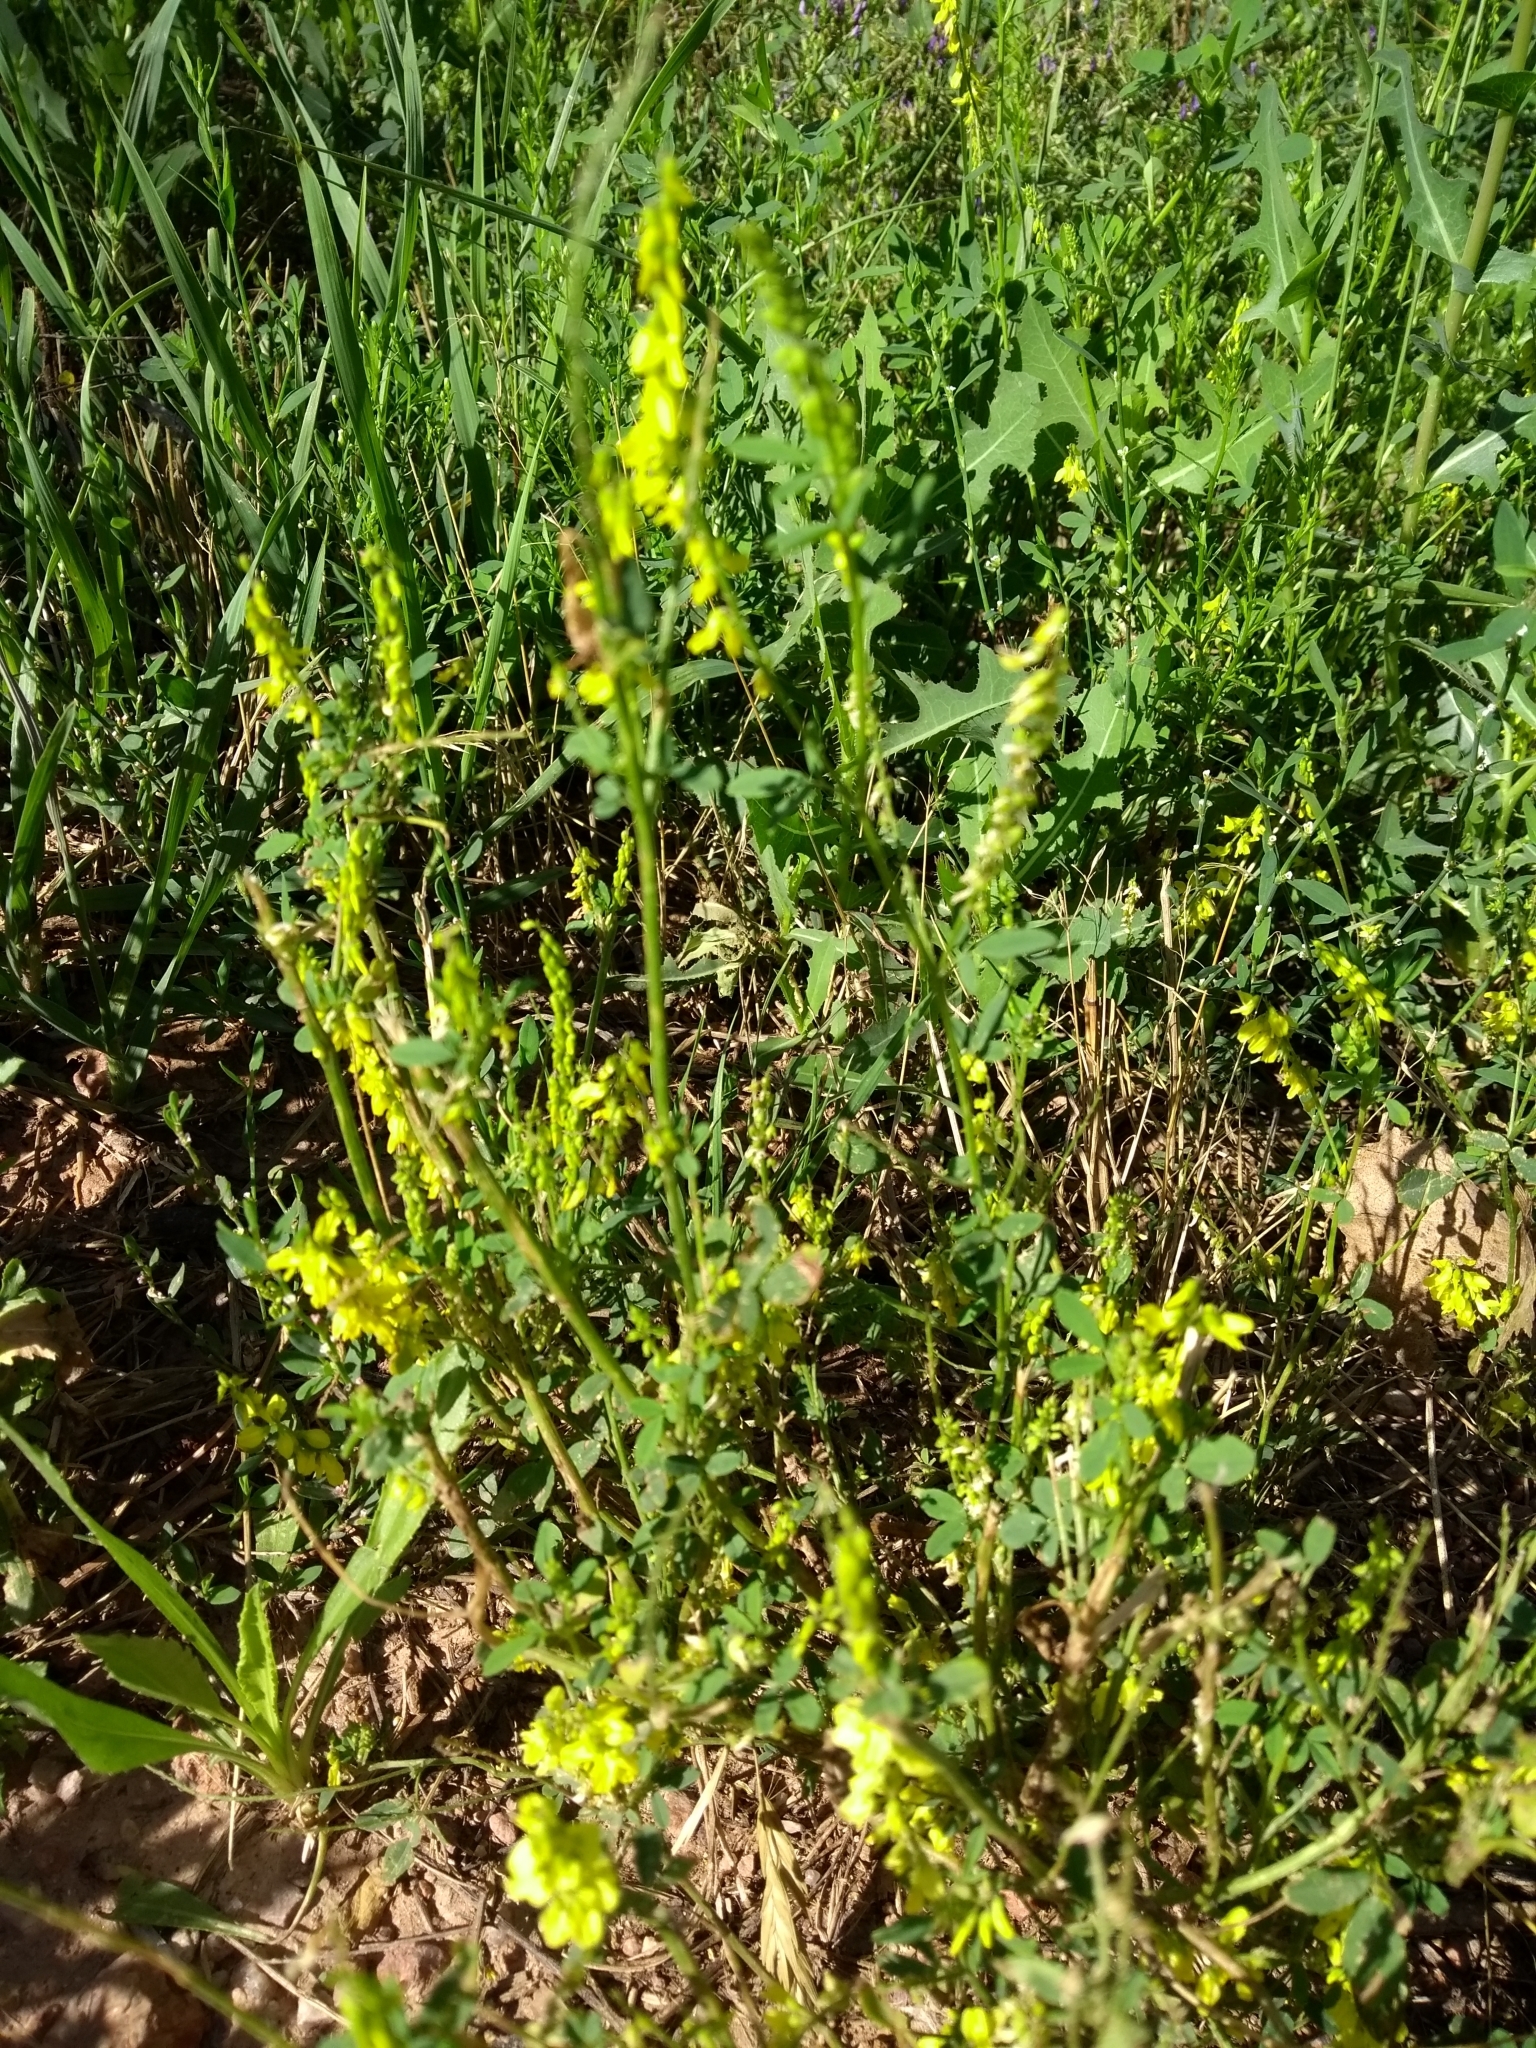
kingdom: Plantae
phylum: Tracheophyta
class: Magnoliopsida
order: Fabales
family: Fabaceae
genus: Melilotus
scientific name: Melilotus officinalis
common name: Sweetclover
